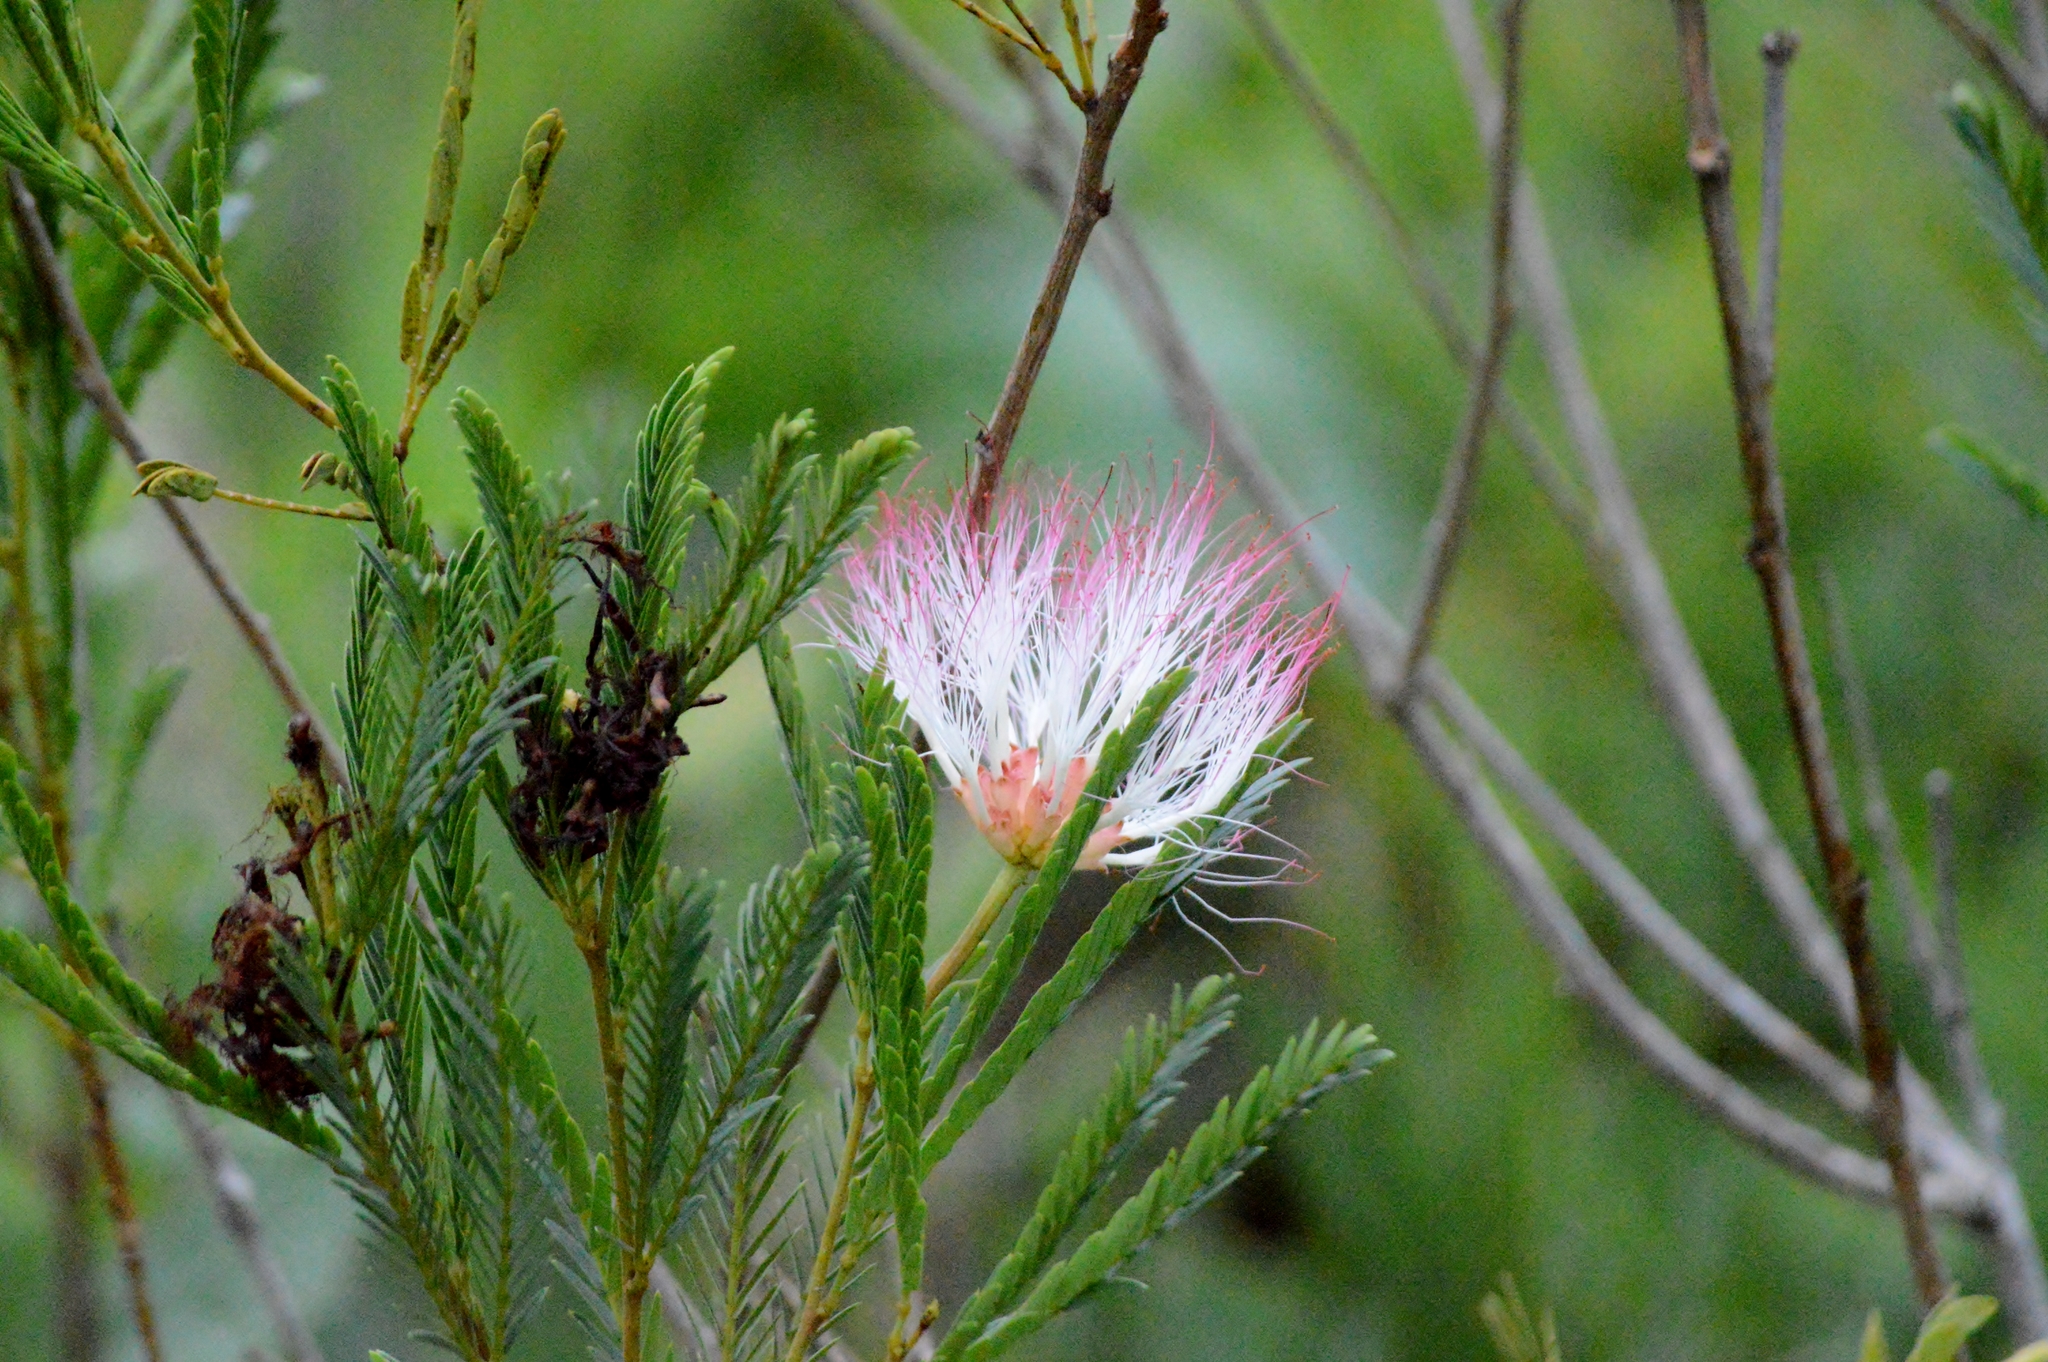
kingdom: Plantae
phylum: Tracheophyta
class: Magnoliopsida
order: Fabales
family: Fabaceae
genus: Calliandra
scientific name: Calliandra virgata
